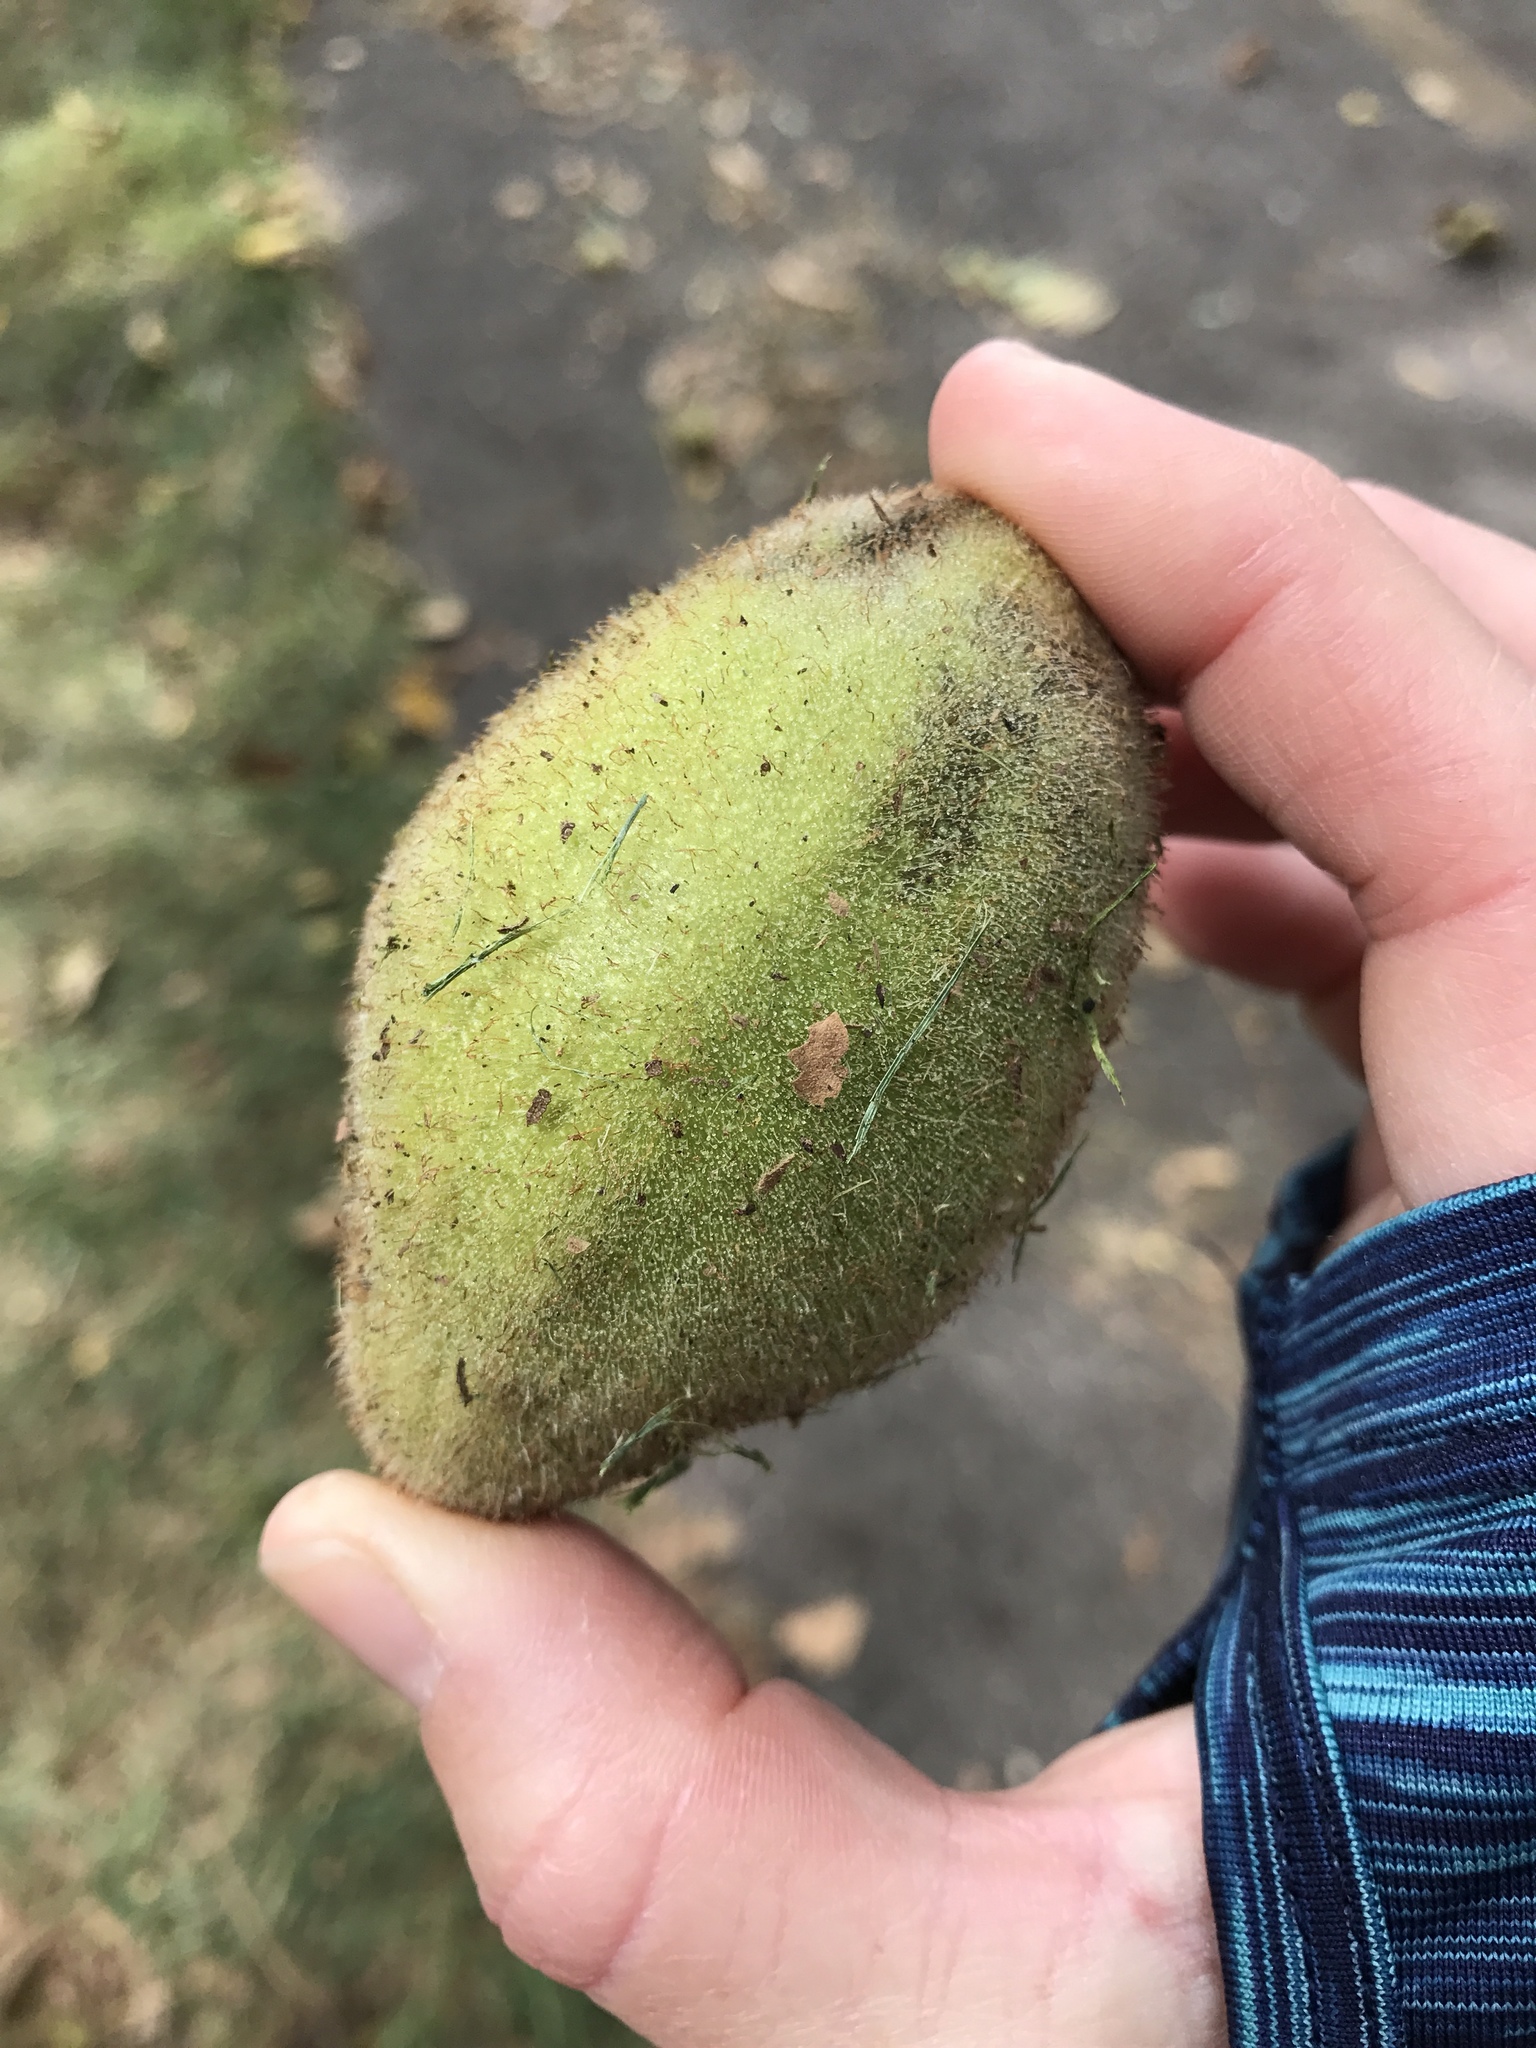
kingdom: Plantae
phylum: Tracheophyta
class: Magnoliopsida
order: Fagales
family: Juglandaceae
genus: Juglans
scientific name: Juglans cinerea
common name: Butternut
